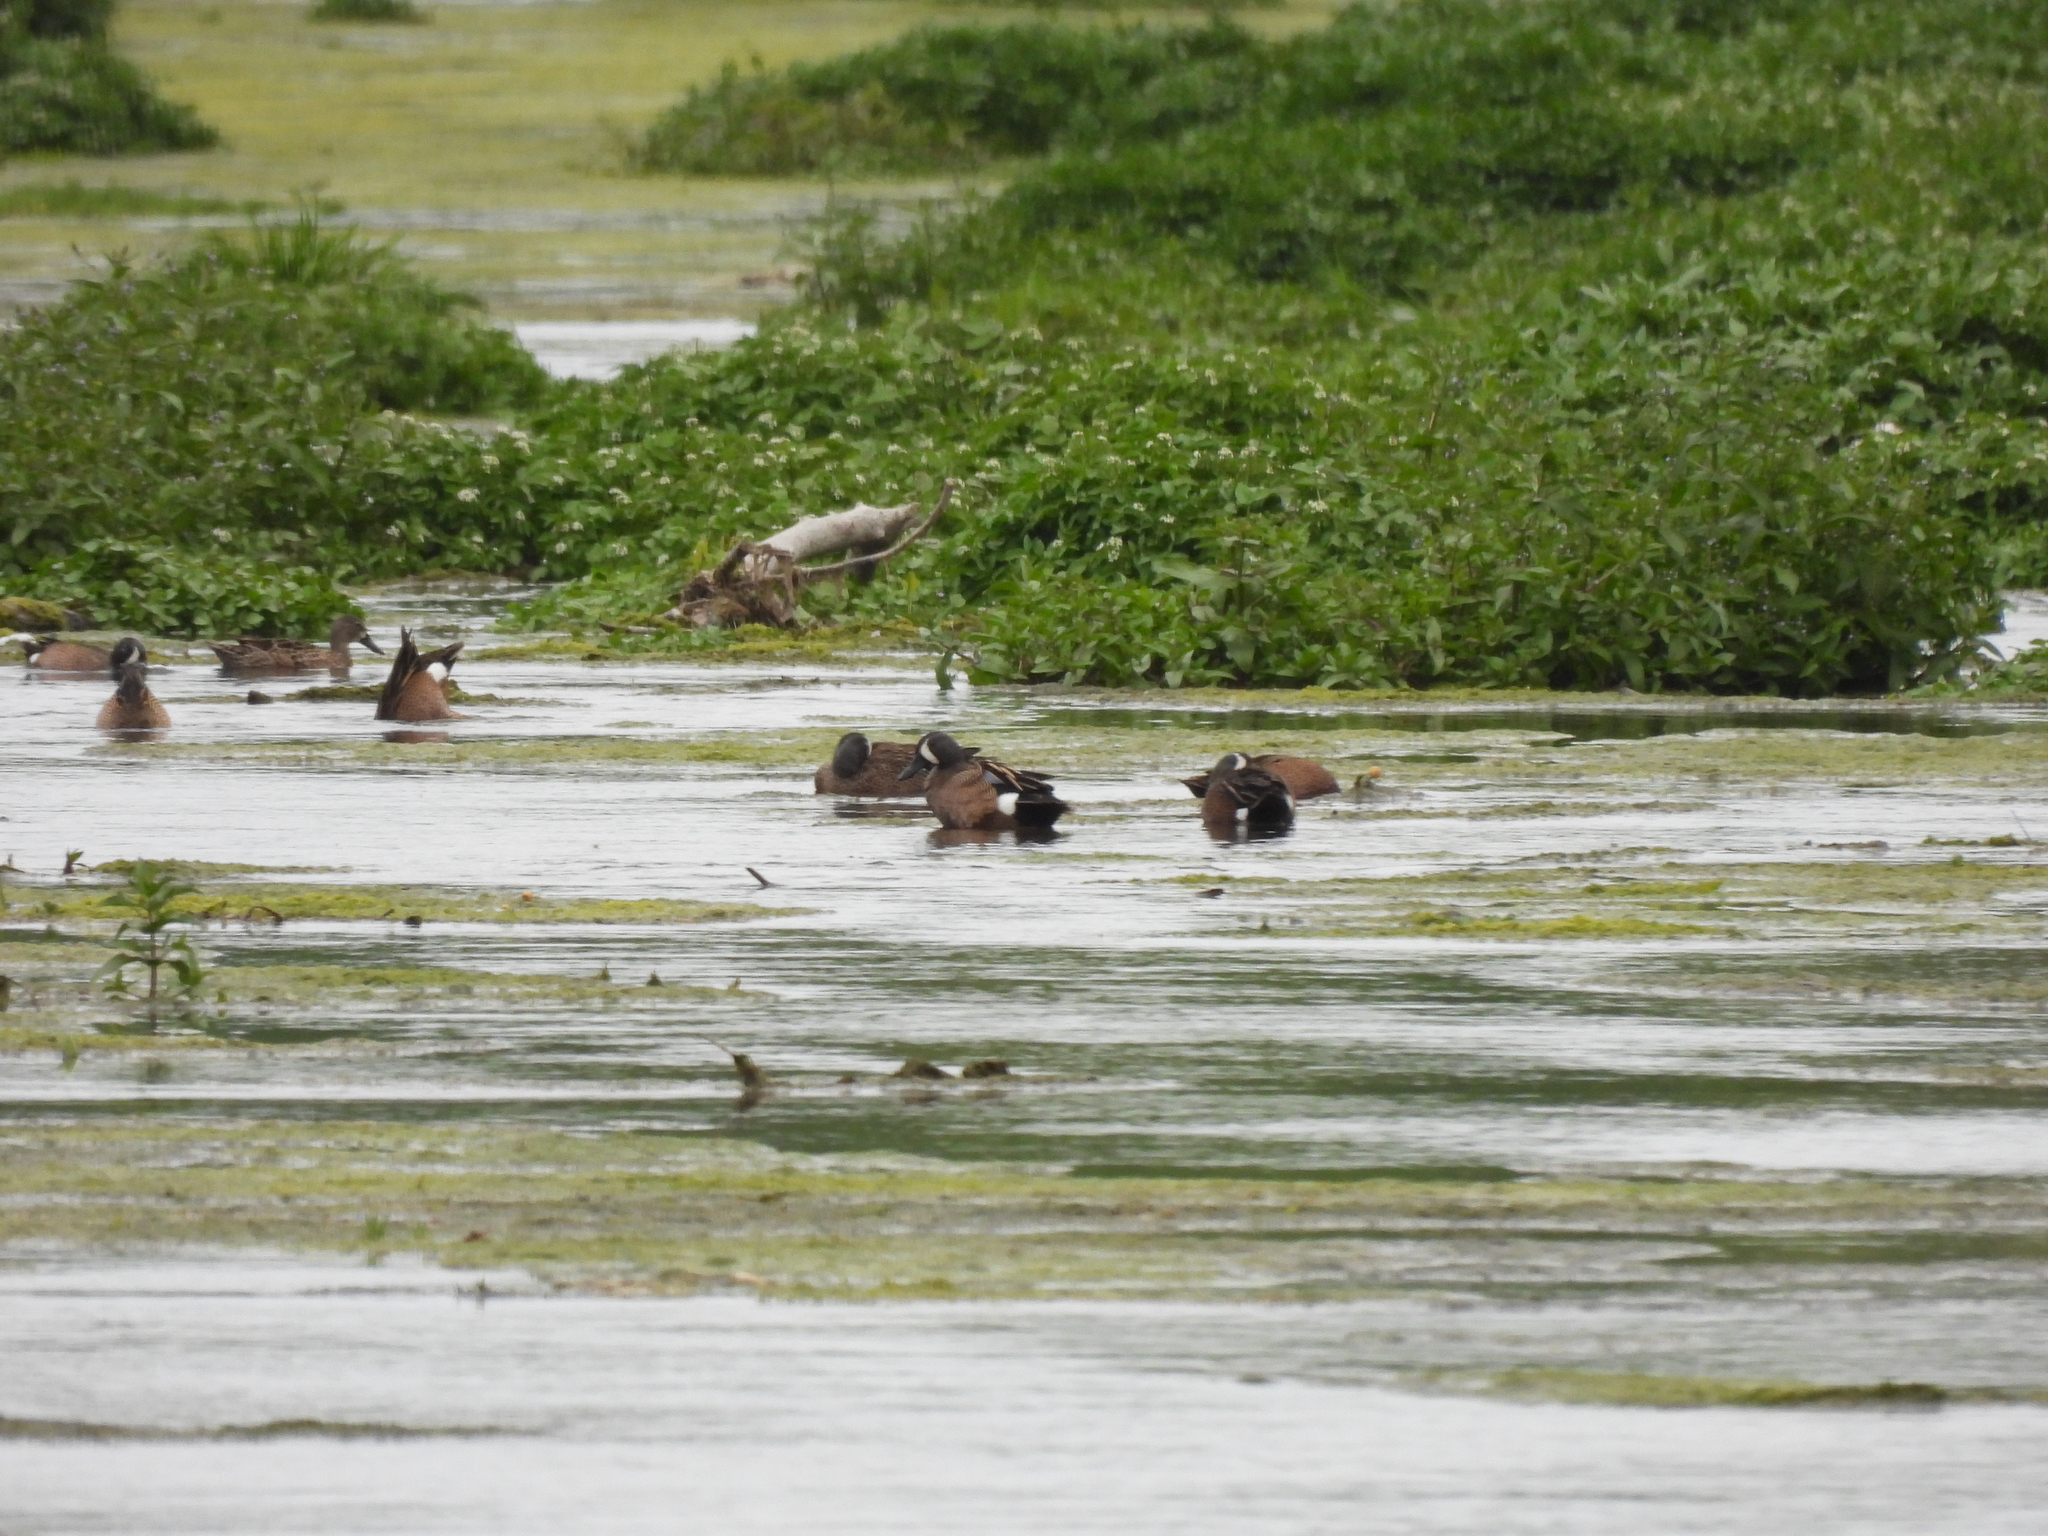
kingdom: Animalia
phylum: Chordata
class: Aves
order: Anseriformes
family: Anatidae
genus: Spatula
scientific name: Spatula discors
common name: Blue-winged teal
